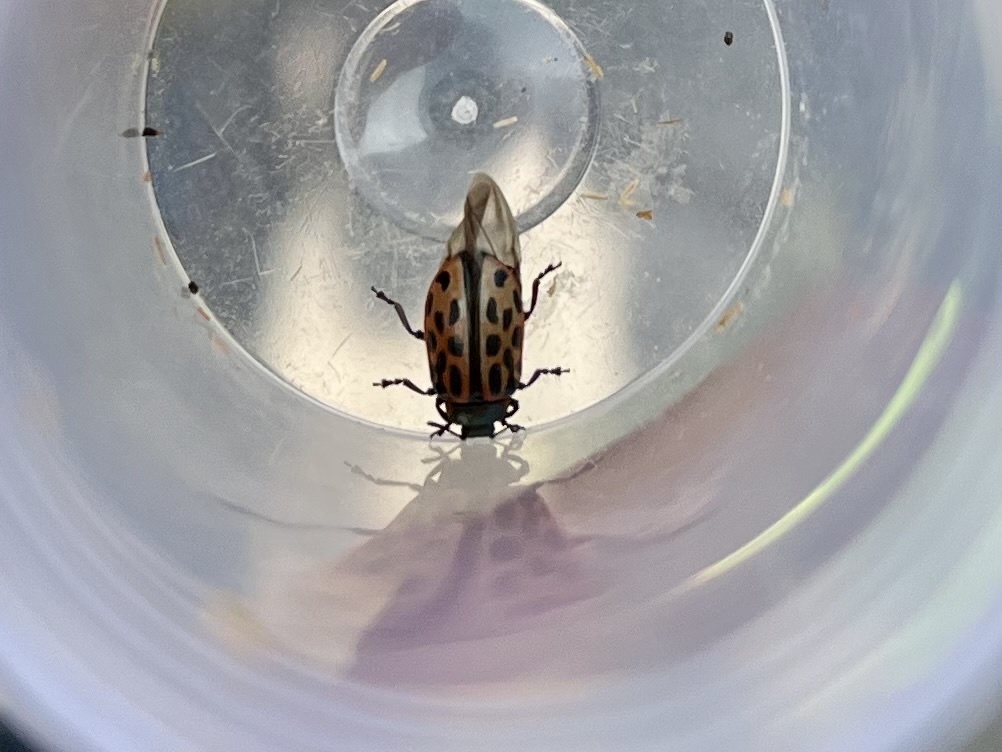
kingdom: Animalia
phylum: Arthropoda
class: Insecta
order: Coleoptera
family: Chrysomelidae
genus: Chrysomela
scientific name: Chrysomela vigintipunctata
